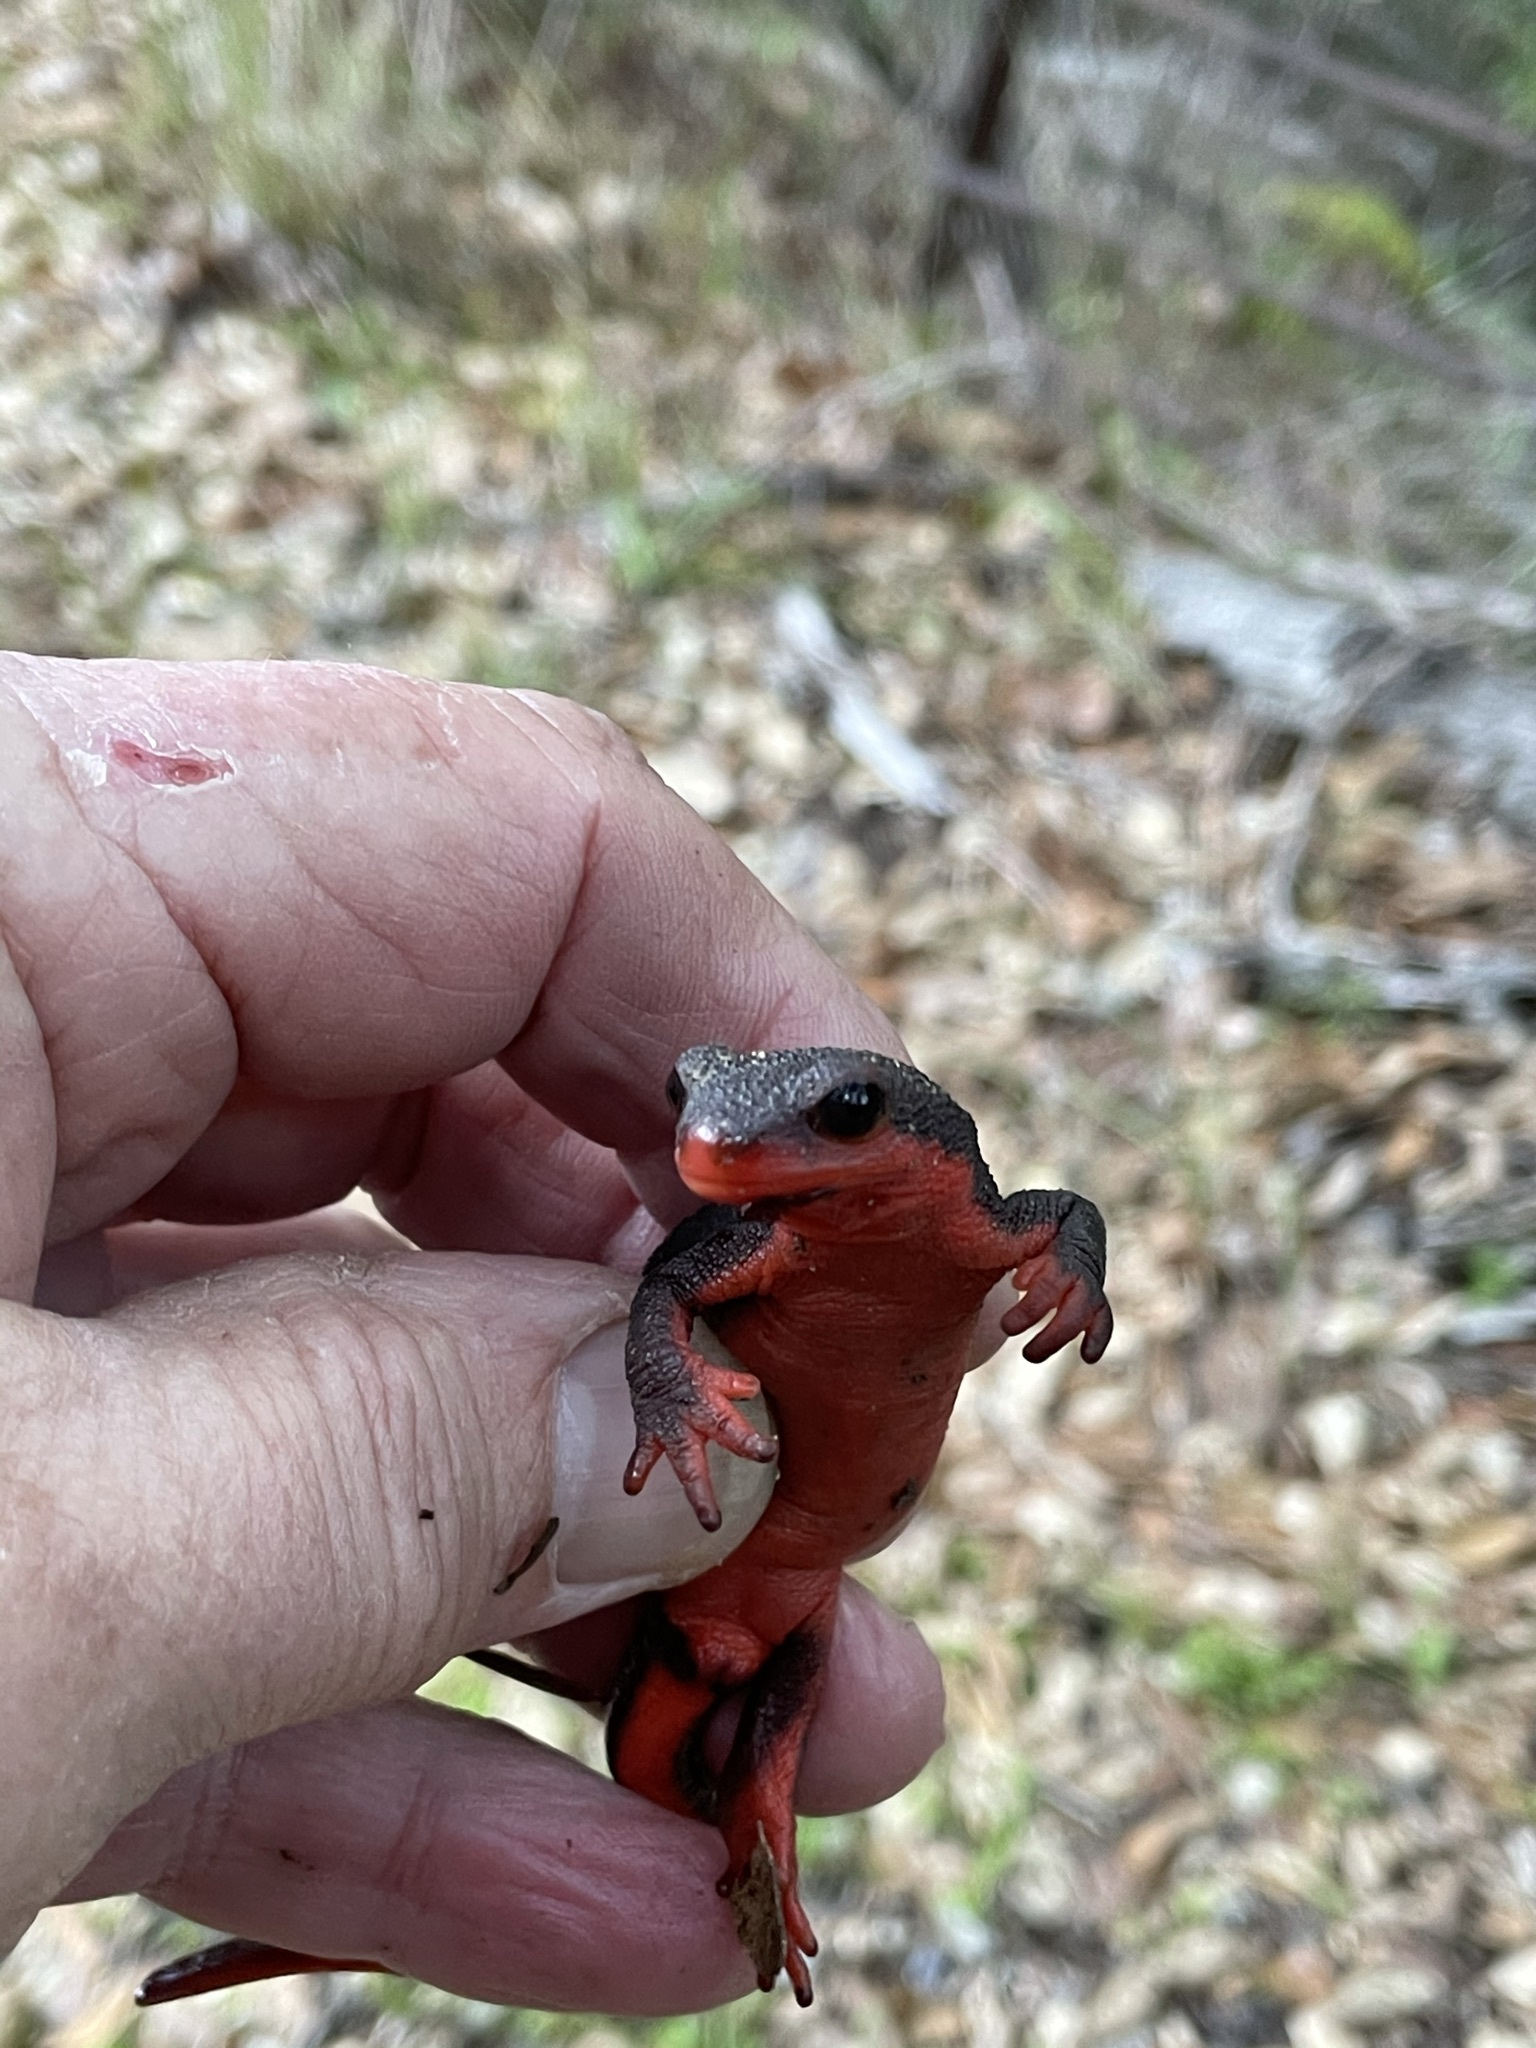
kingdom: Animalia
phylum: Chordata
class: Amphibia
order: Caudata
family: Salamandridae
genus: Taricha
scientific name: Taricha rivularis
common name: Red-bellied newt
